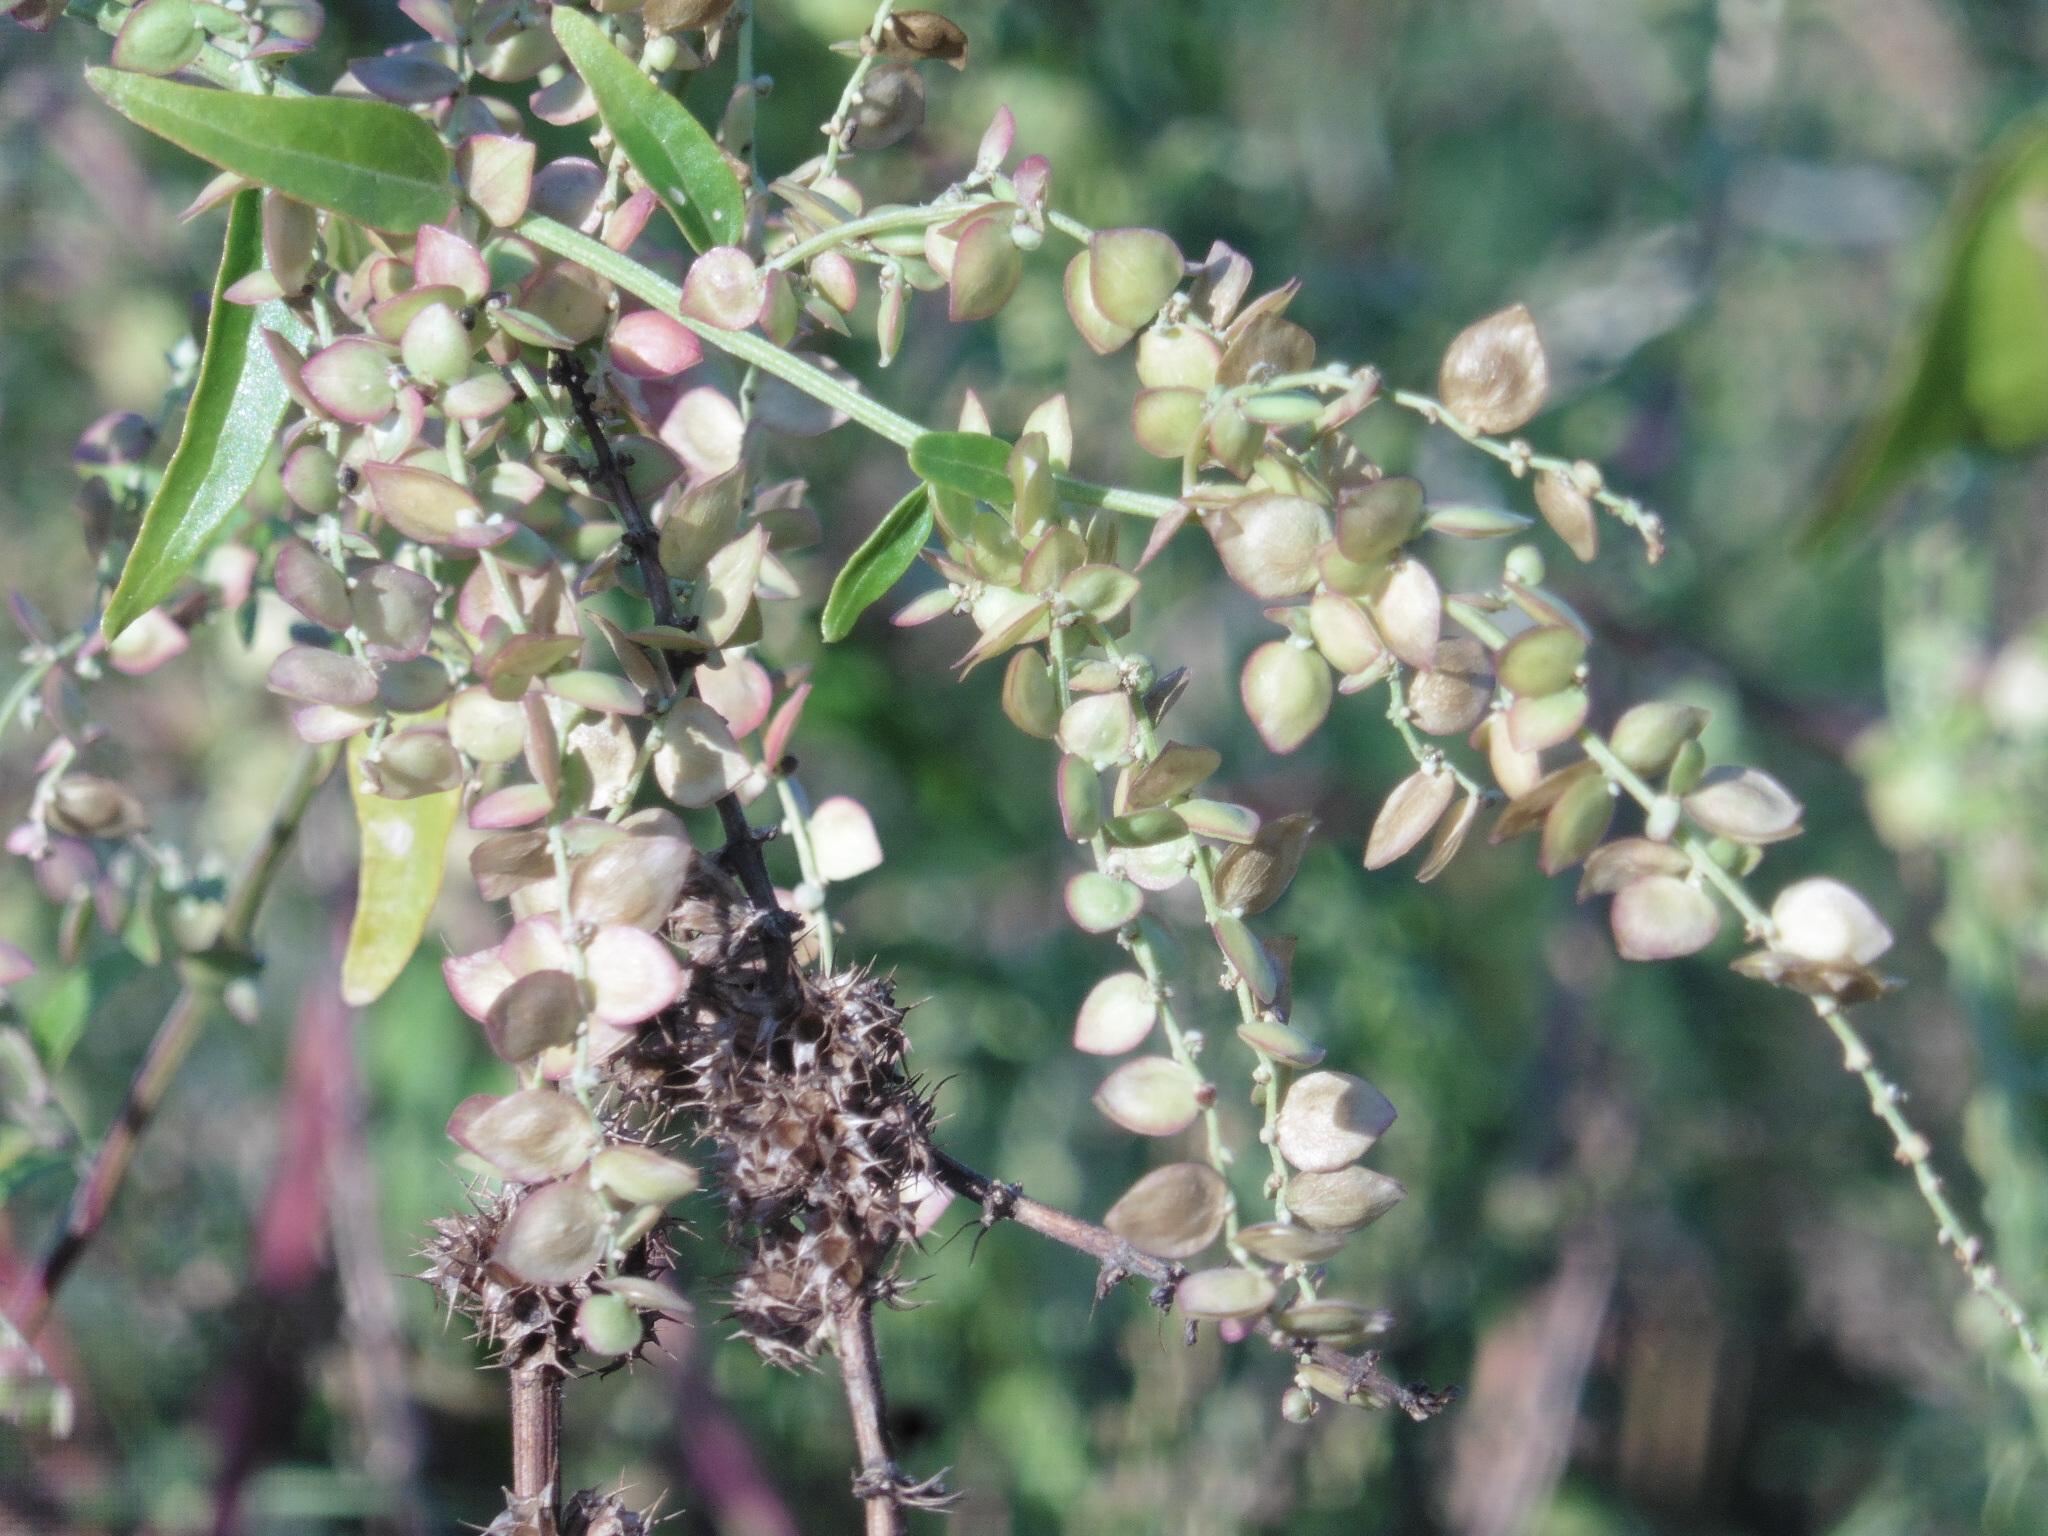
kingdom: Plantae
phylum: Tracheophyta
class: Magnoliopsida
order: Caryophyllales
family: Amaranthaceae
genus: Atriplex
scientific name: Atriplex sagittata
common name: Purple orache
